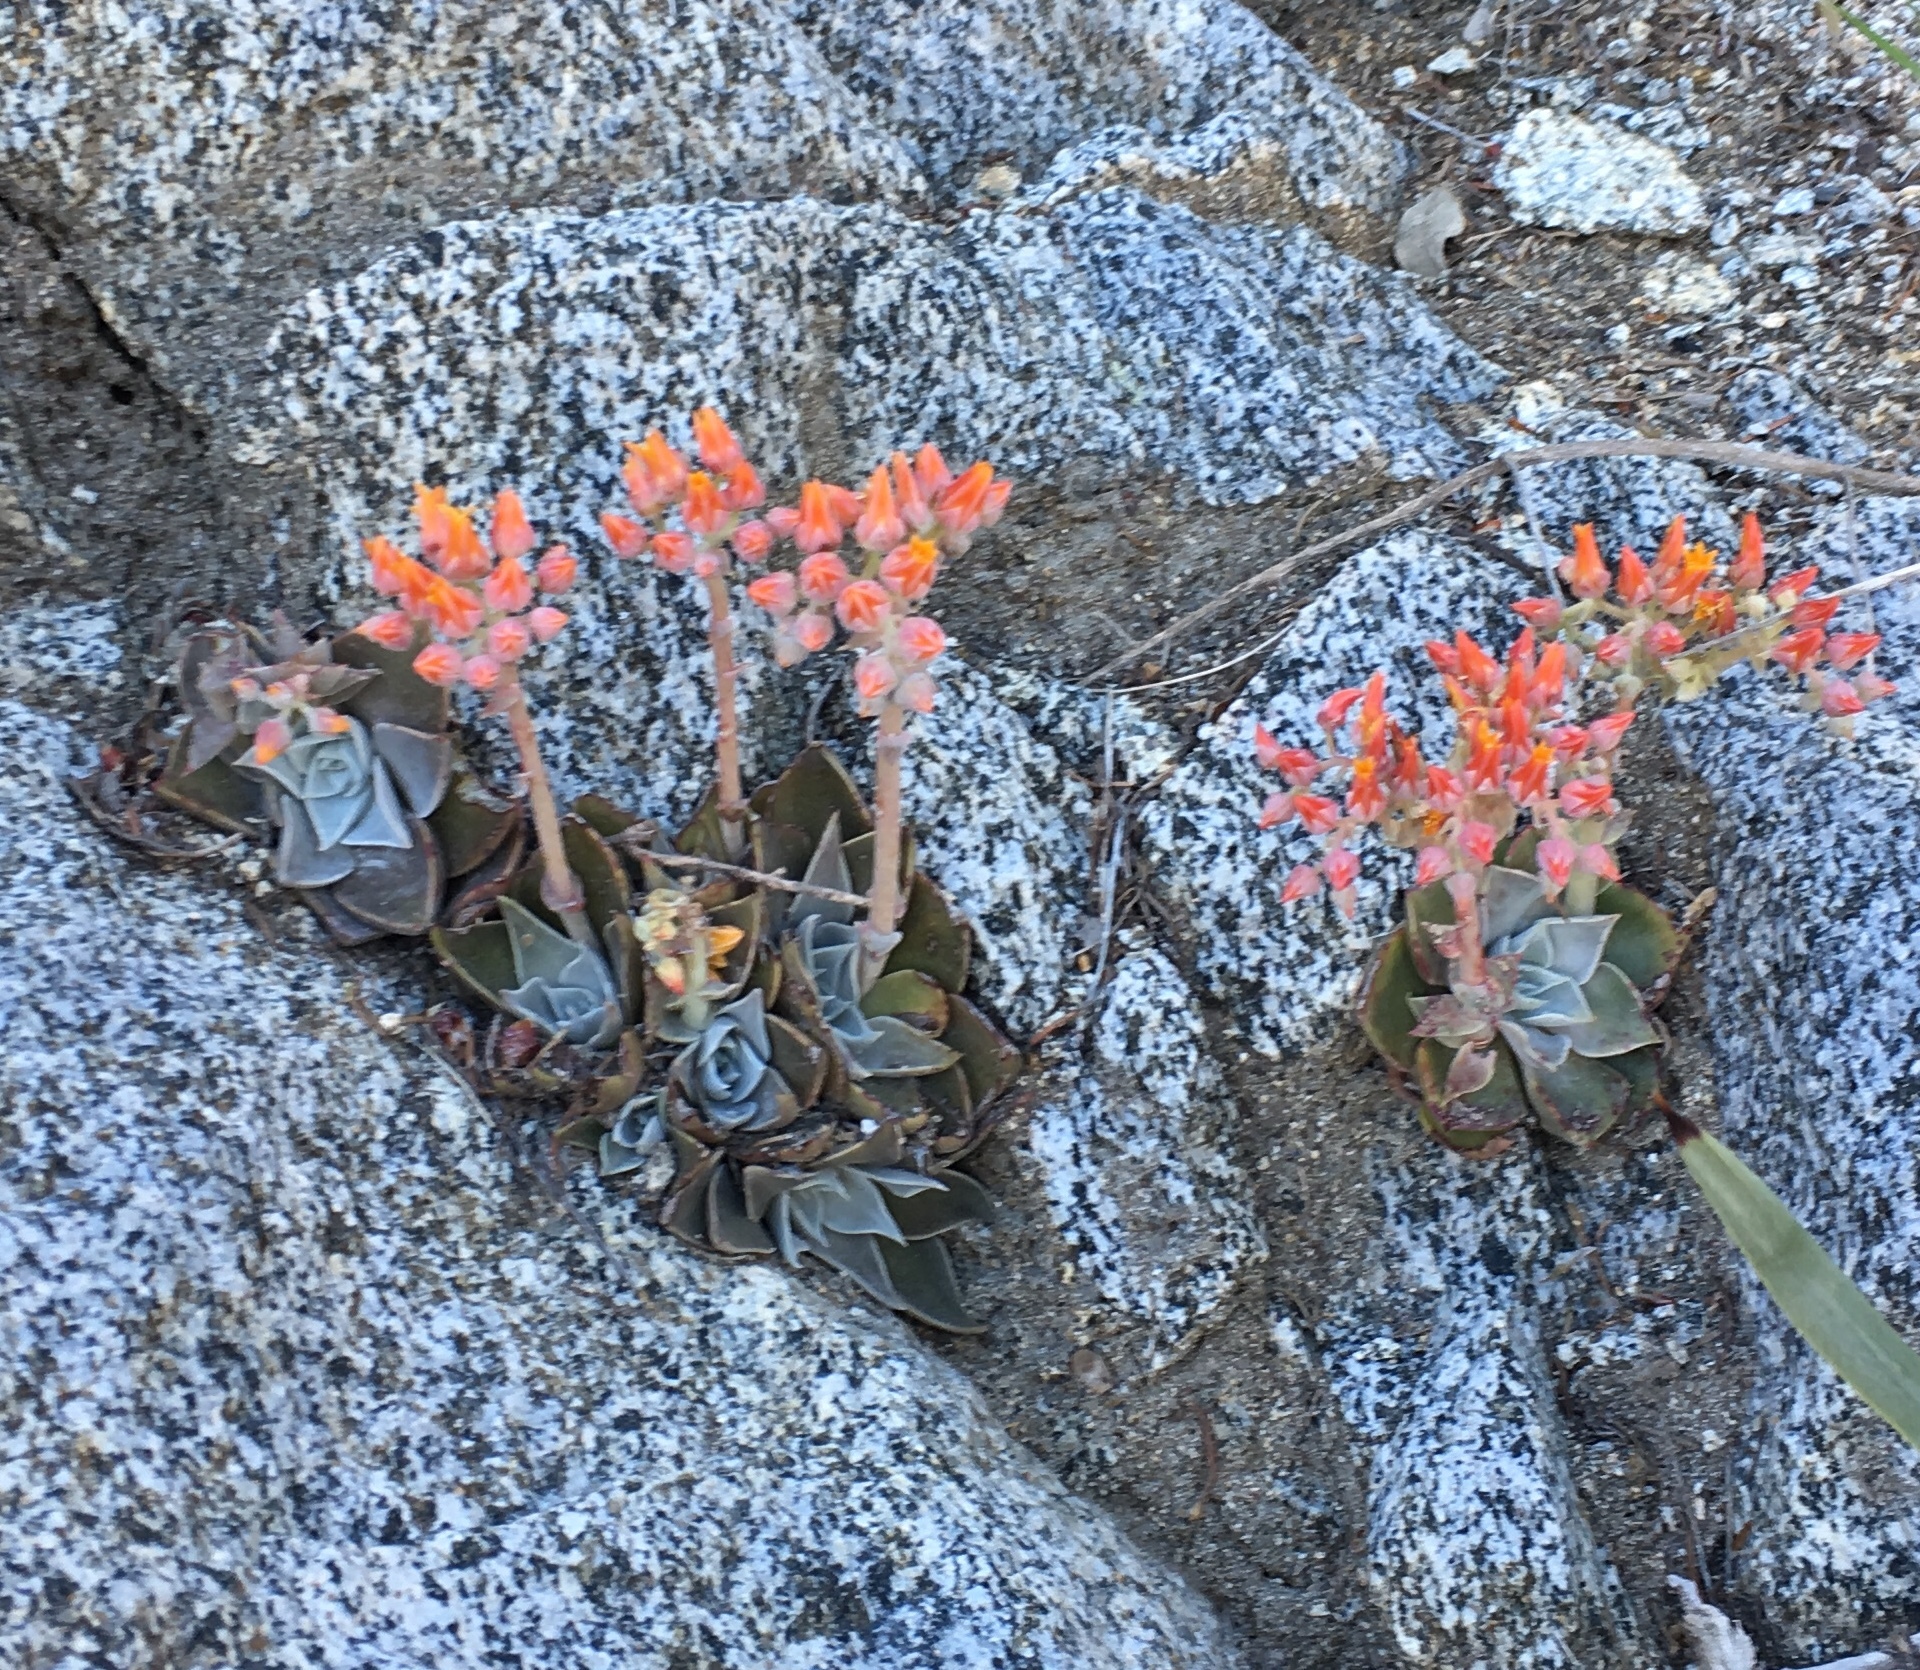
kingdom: Plantae
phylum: Tracheophyta
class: Magnoliopsida
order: Saxifragales
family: Crassulaceae
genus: Dudleya
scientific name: Dudleya cymosa
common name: Canyon dudleya
